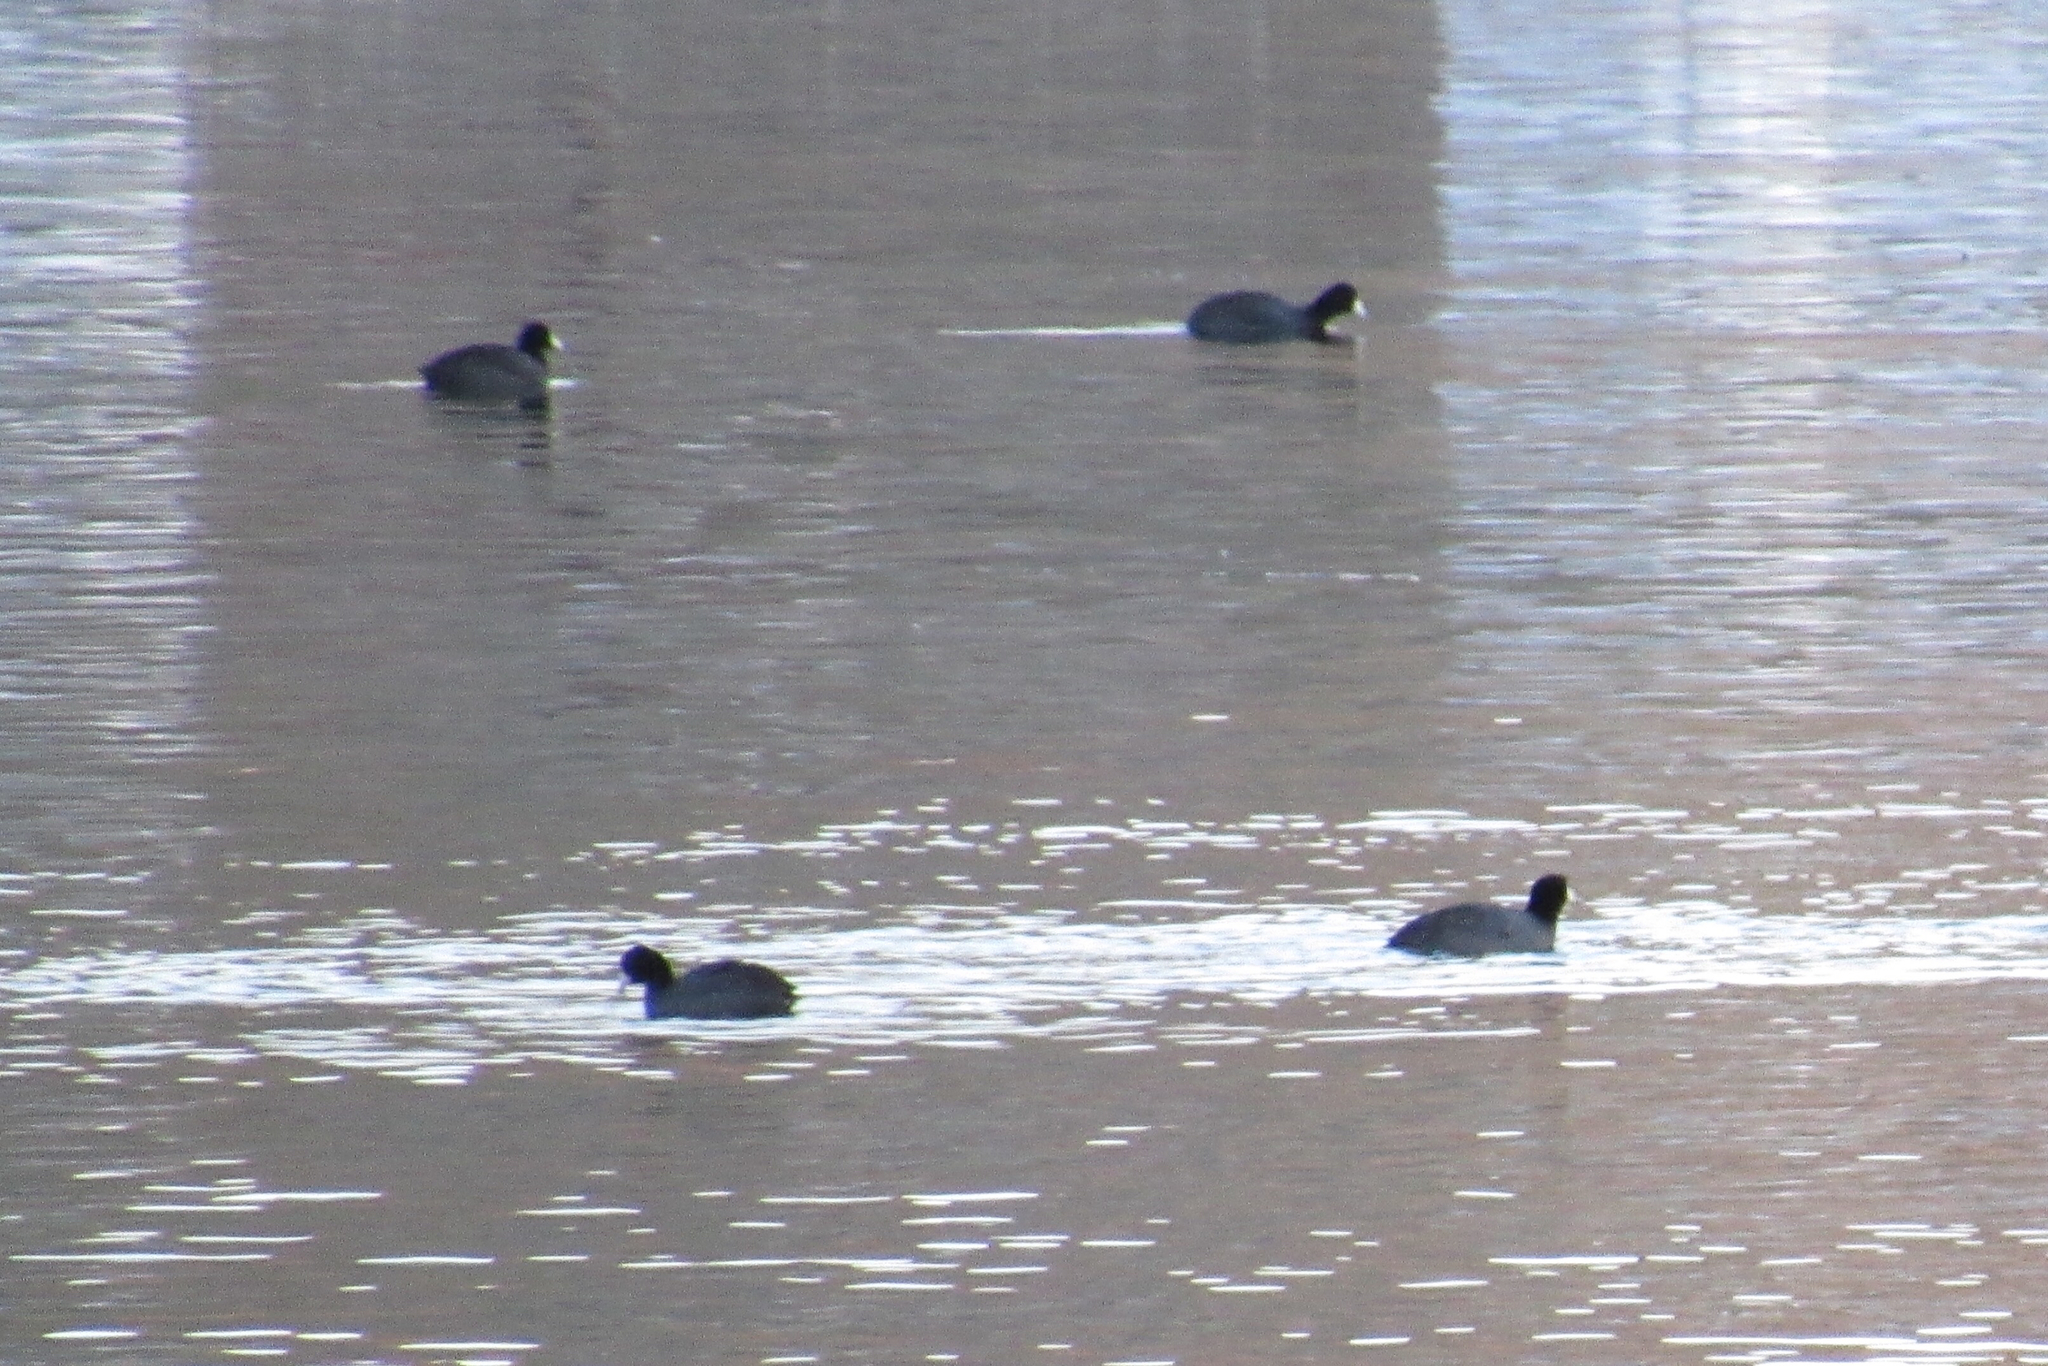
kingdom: Animalia
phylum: Chordata
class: Aves
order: Gruiformes
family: Rallidae
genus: Fulica
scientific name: Fulica americana
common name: American coot
